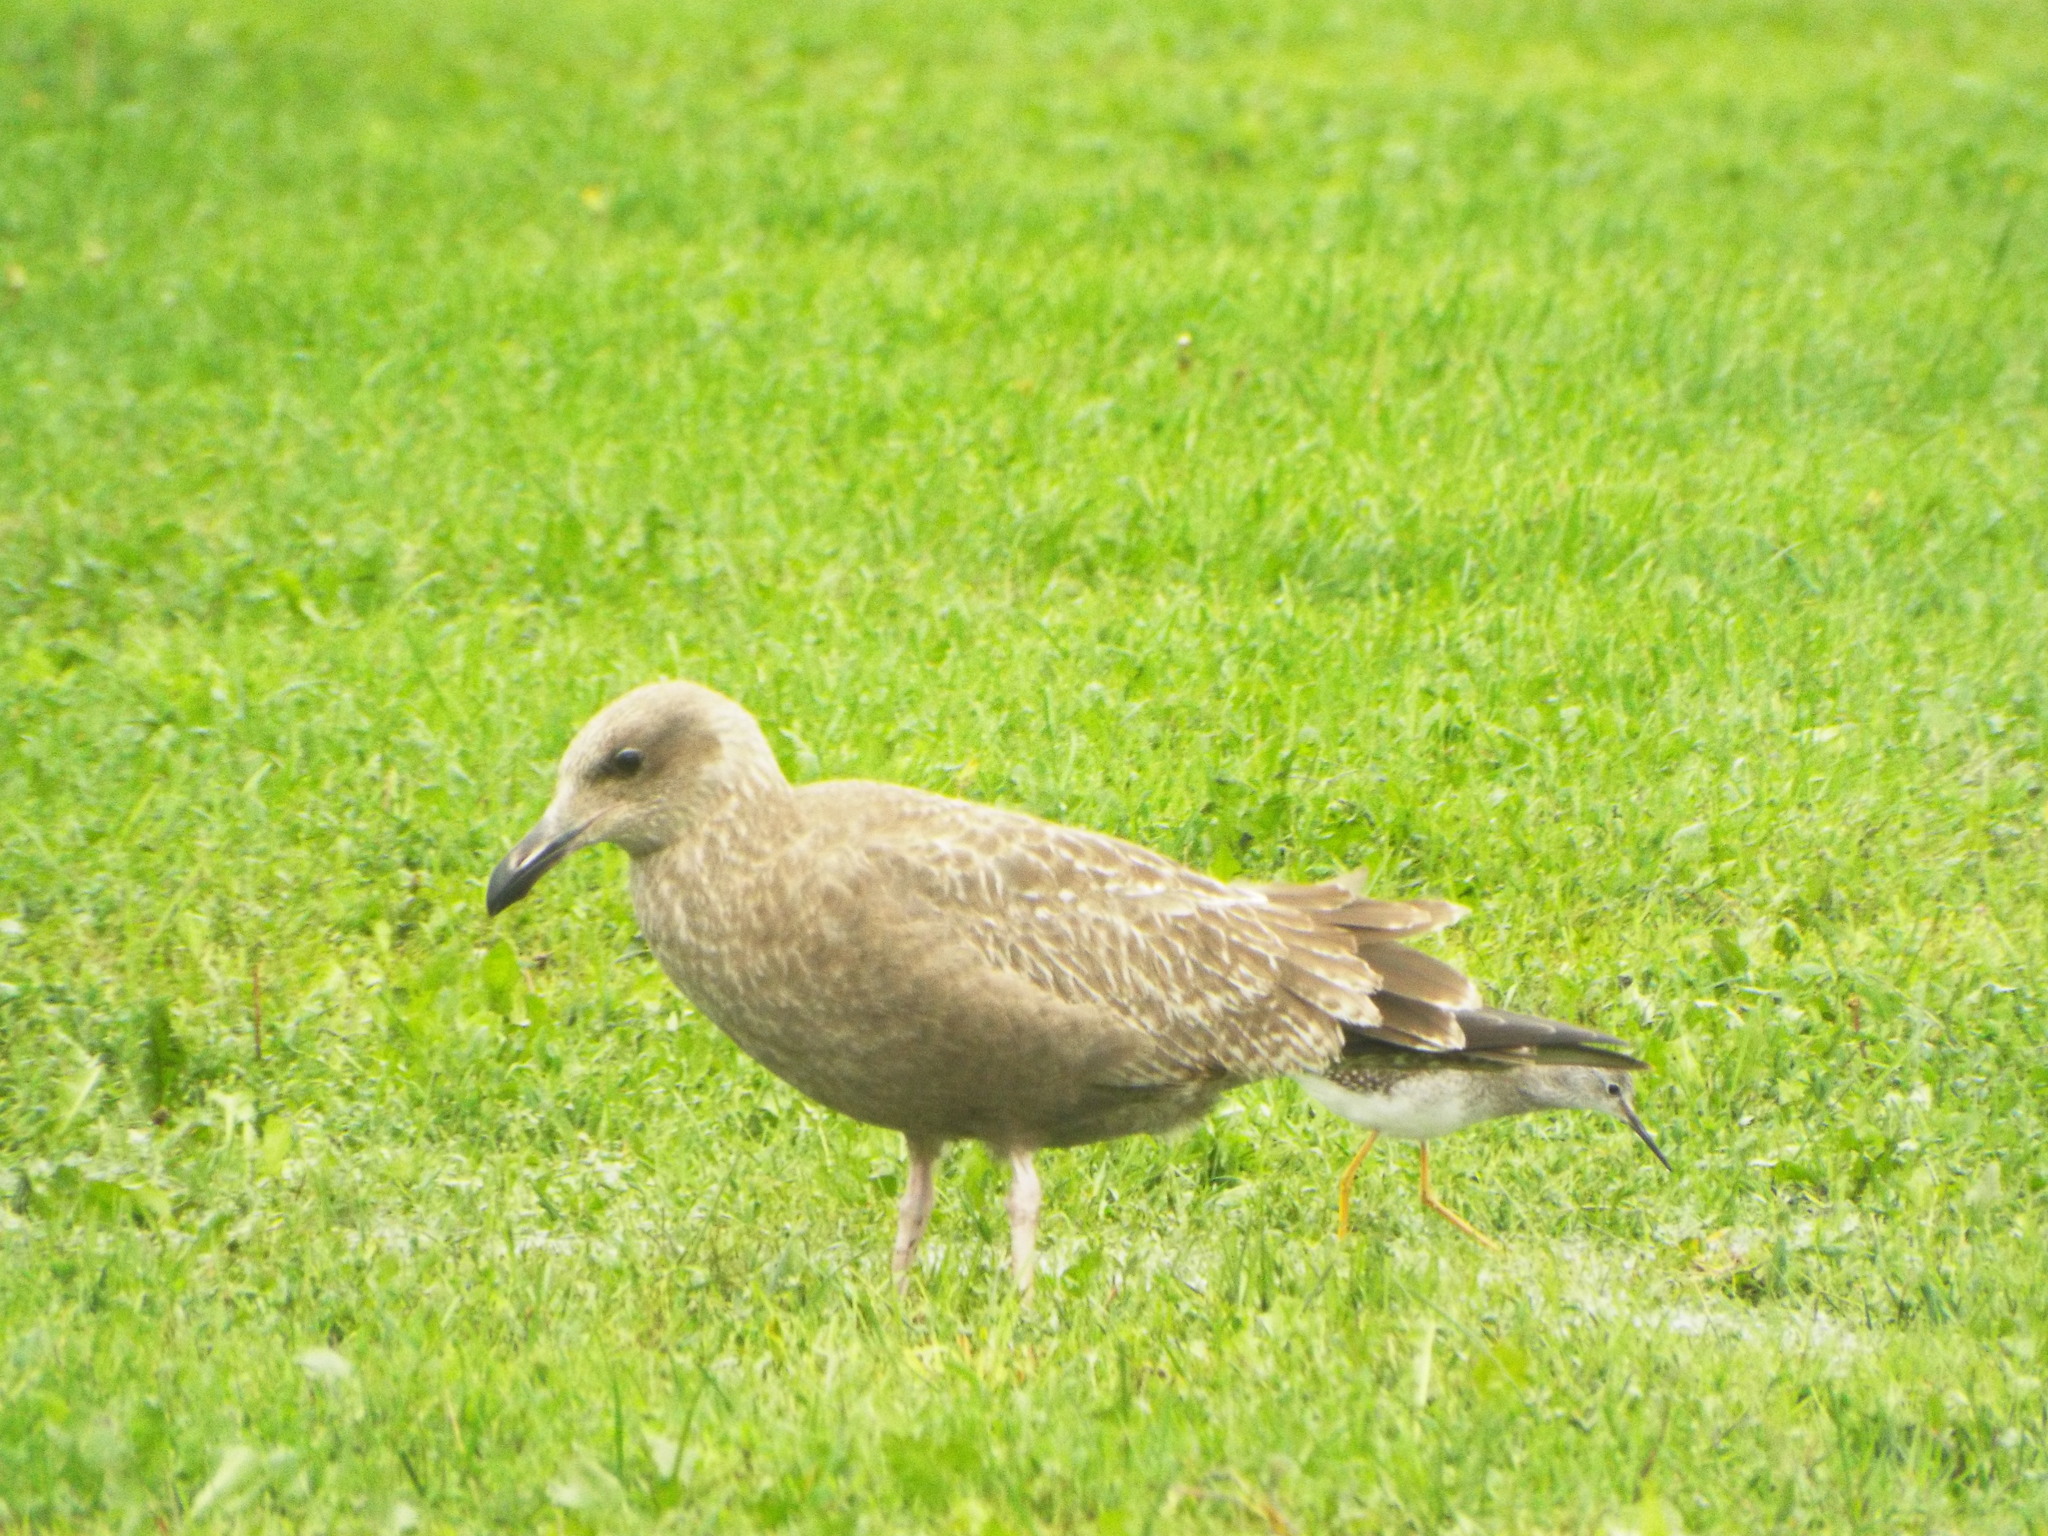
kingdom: Animalia
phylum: Chordata
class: Aves
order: Charadriiformes
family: Laridae
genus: Larus
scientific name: Larus argentatus
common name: Herring gull
